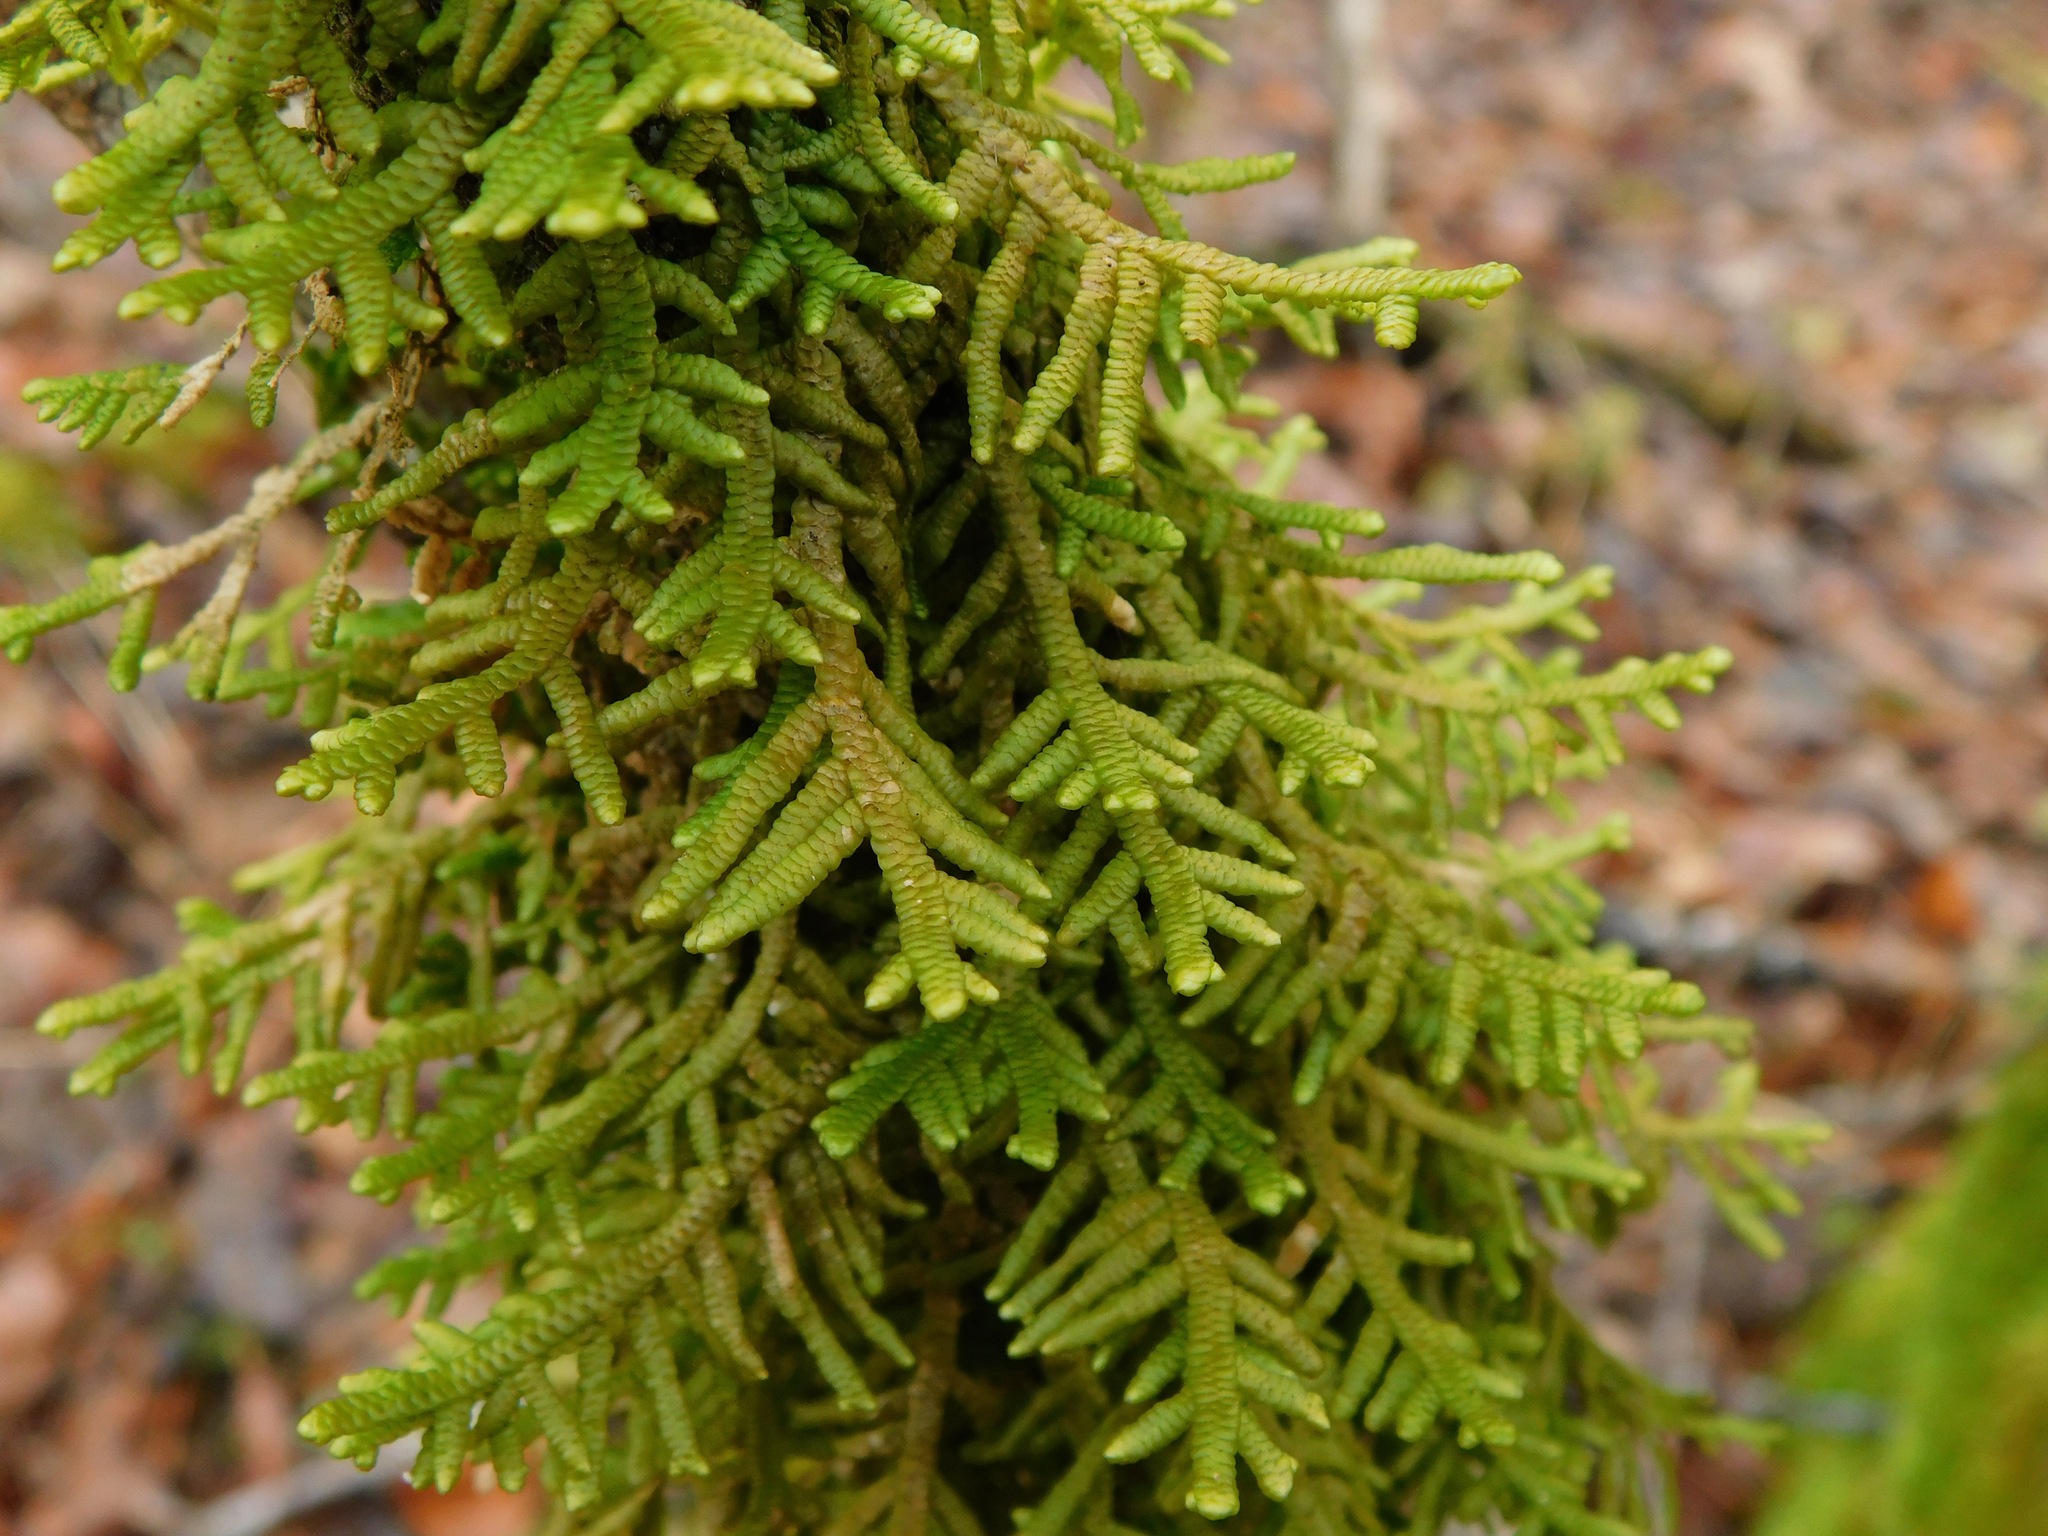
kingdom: Plantae
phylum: Marchantiophyta
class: Jungermanniopsida
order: Porellales
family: Porellaceae
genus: Porella
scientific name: Porella platyphylla
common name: Wall scalewort
